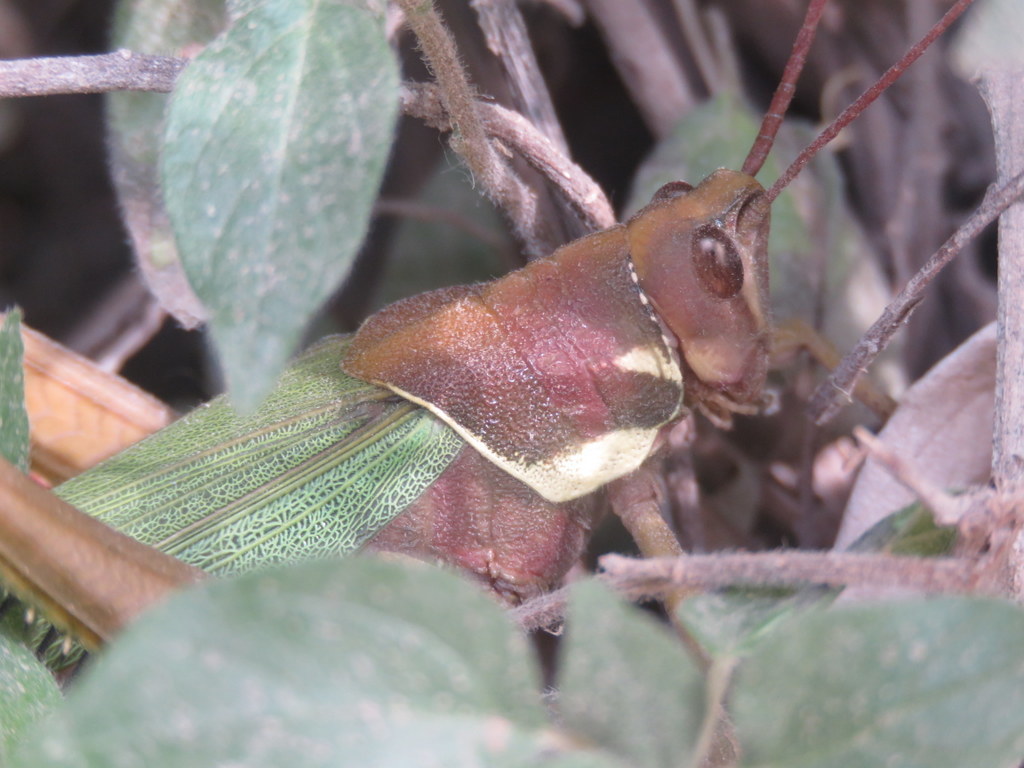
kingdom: Animalia
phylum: Arthropoda
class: Insecta
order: Orthoptera
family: Romaleidae
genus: Coryacris
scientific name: Coryacris angustipennis
